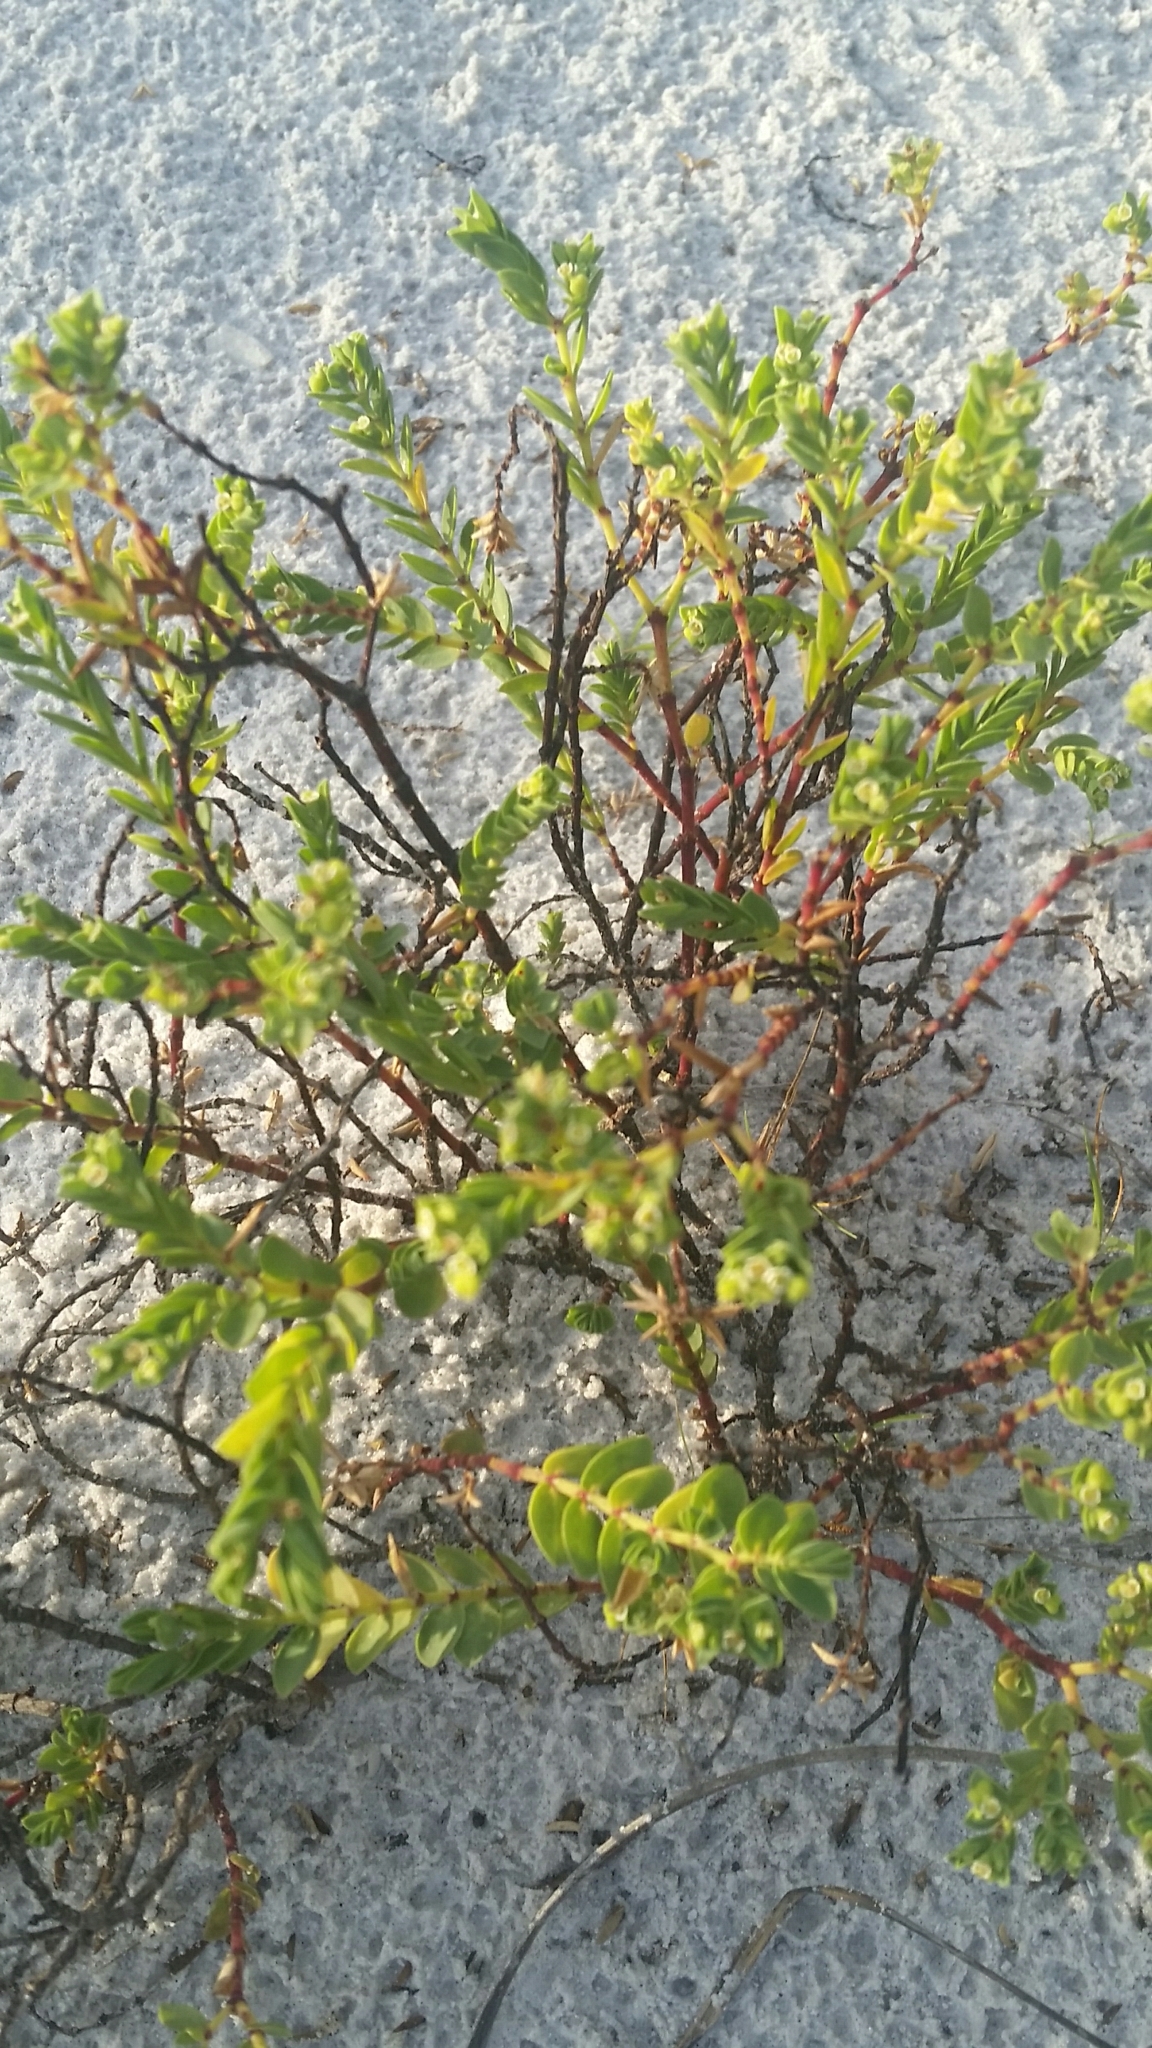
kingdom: Plantae
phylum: Tracheophyta
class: Magnoliopsida
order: Malpighiales
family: Euphorbiaceae
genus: Euphorbia
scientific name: Euphorbia mesembryanthemifolia
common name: Coastal beach sandmat
